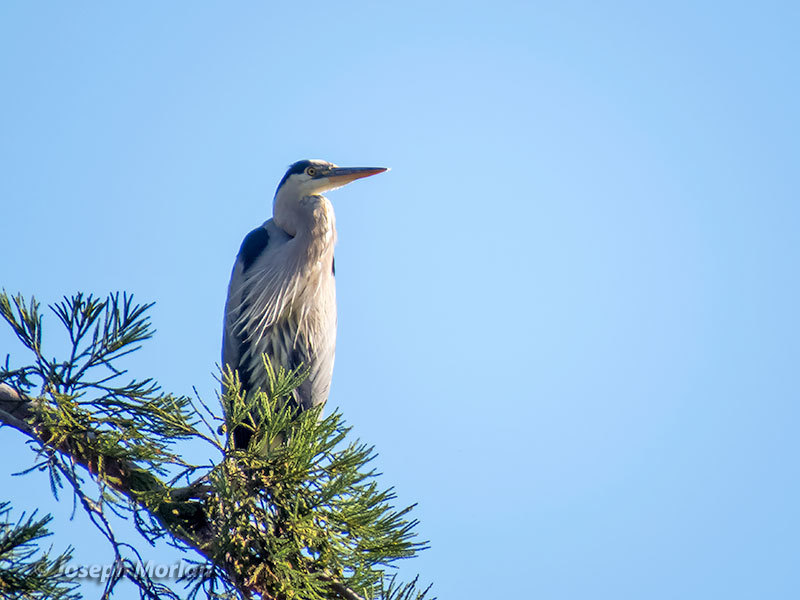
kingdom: Animalia
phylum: Chordata
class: Aves
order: Pelecaniformes
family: Ardeidae
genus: Ardea
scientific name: Ardea herodias
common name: Great blue heron
